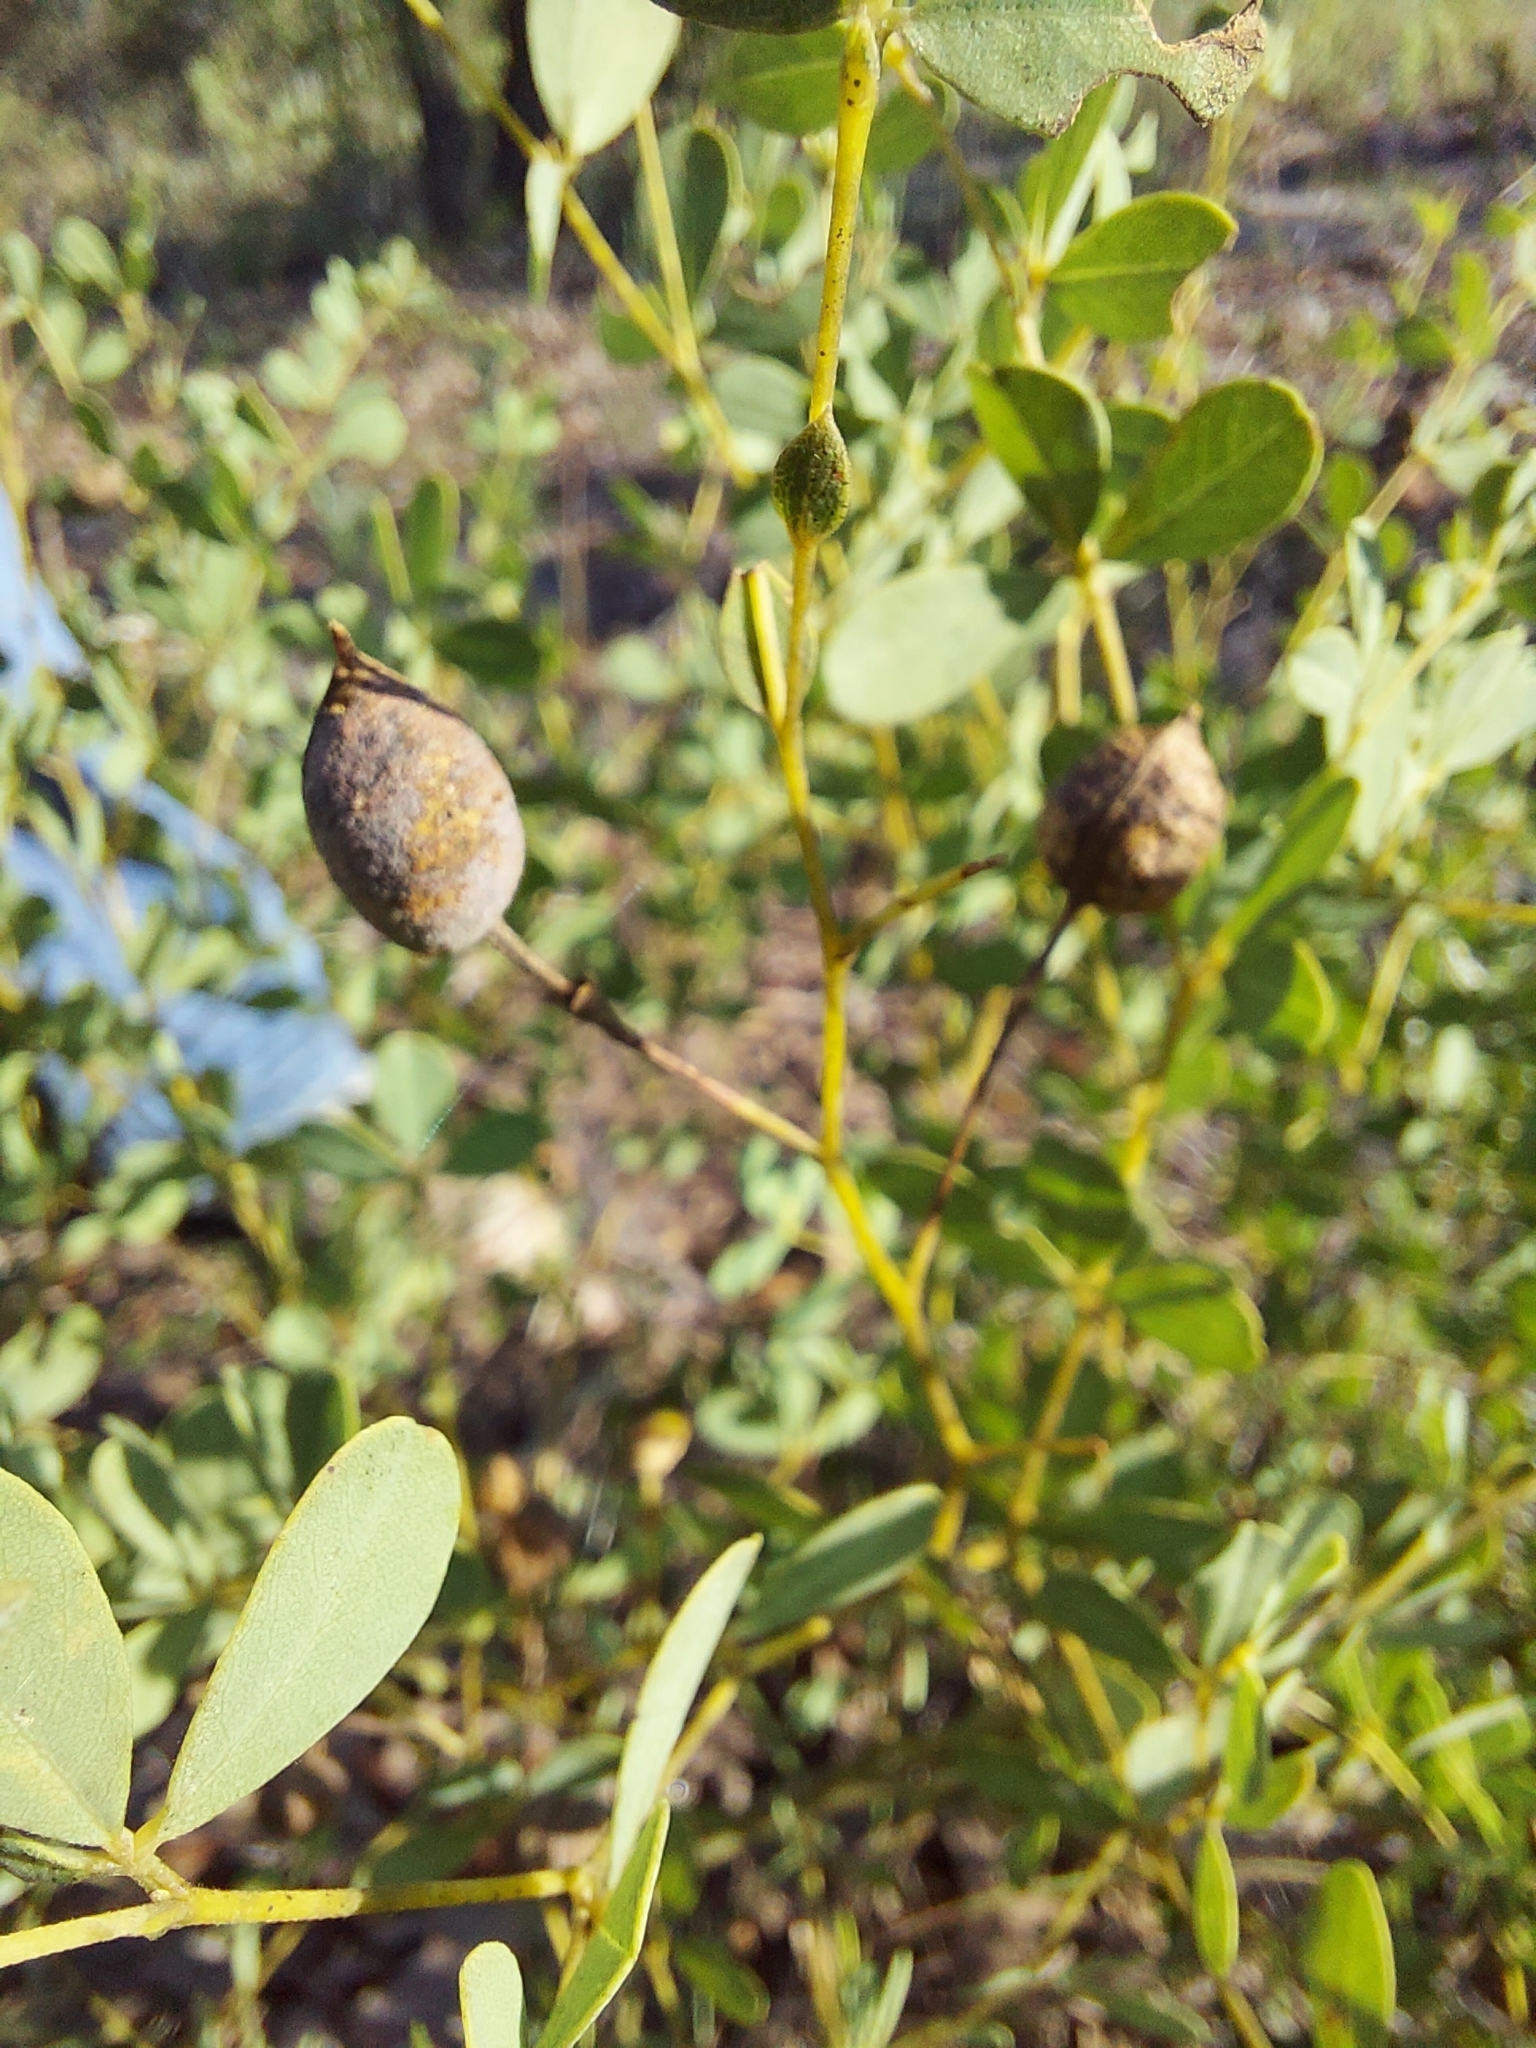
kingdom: Plantae
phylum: Tracheophyta
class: Magnoliopsida
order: Fabales
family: Fabaceae
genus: Baptisia
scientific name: Baptisia lecontei
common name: Pineland wild indigo
